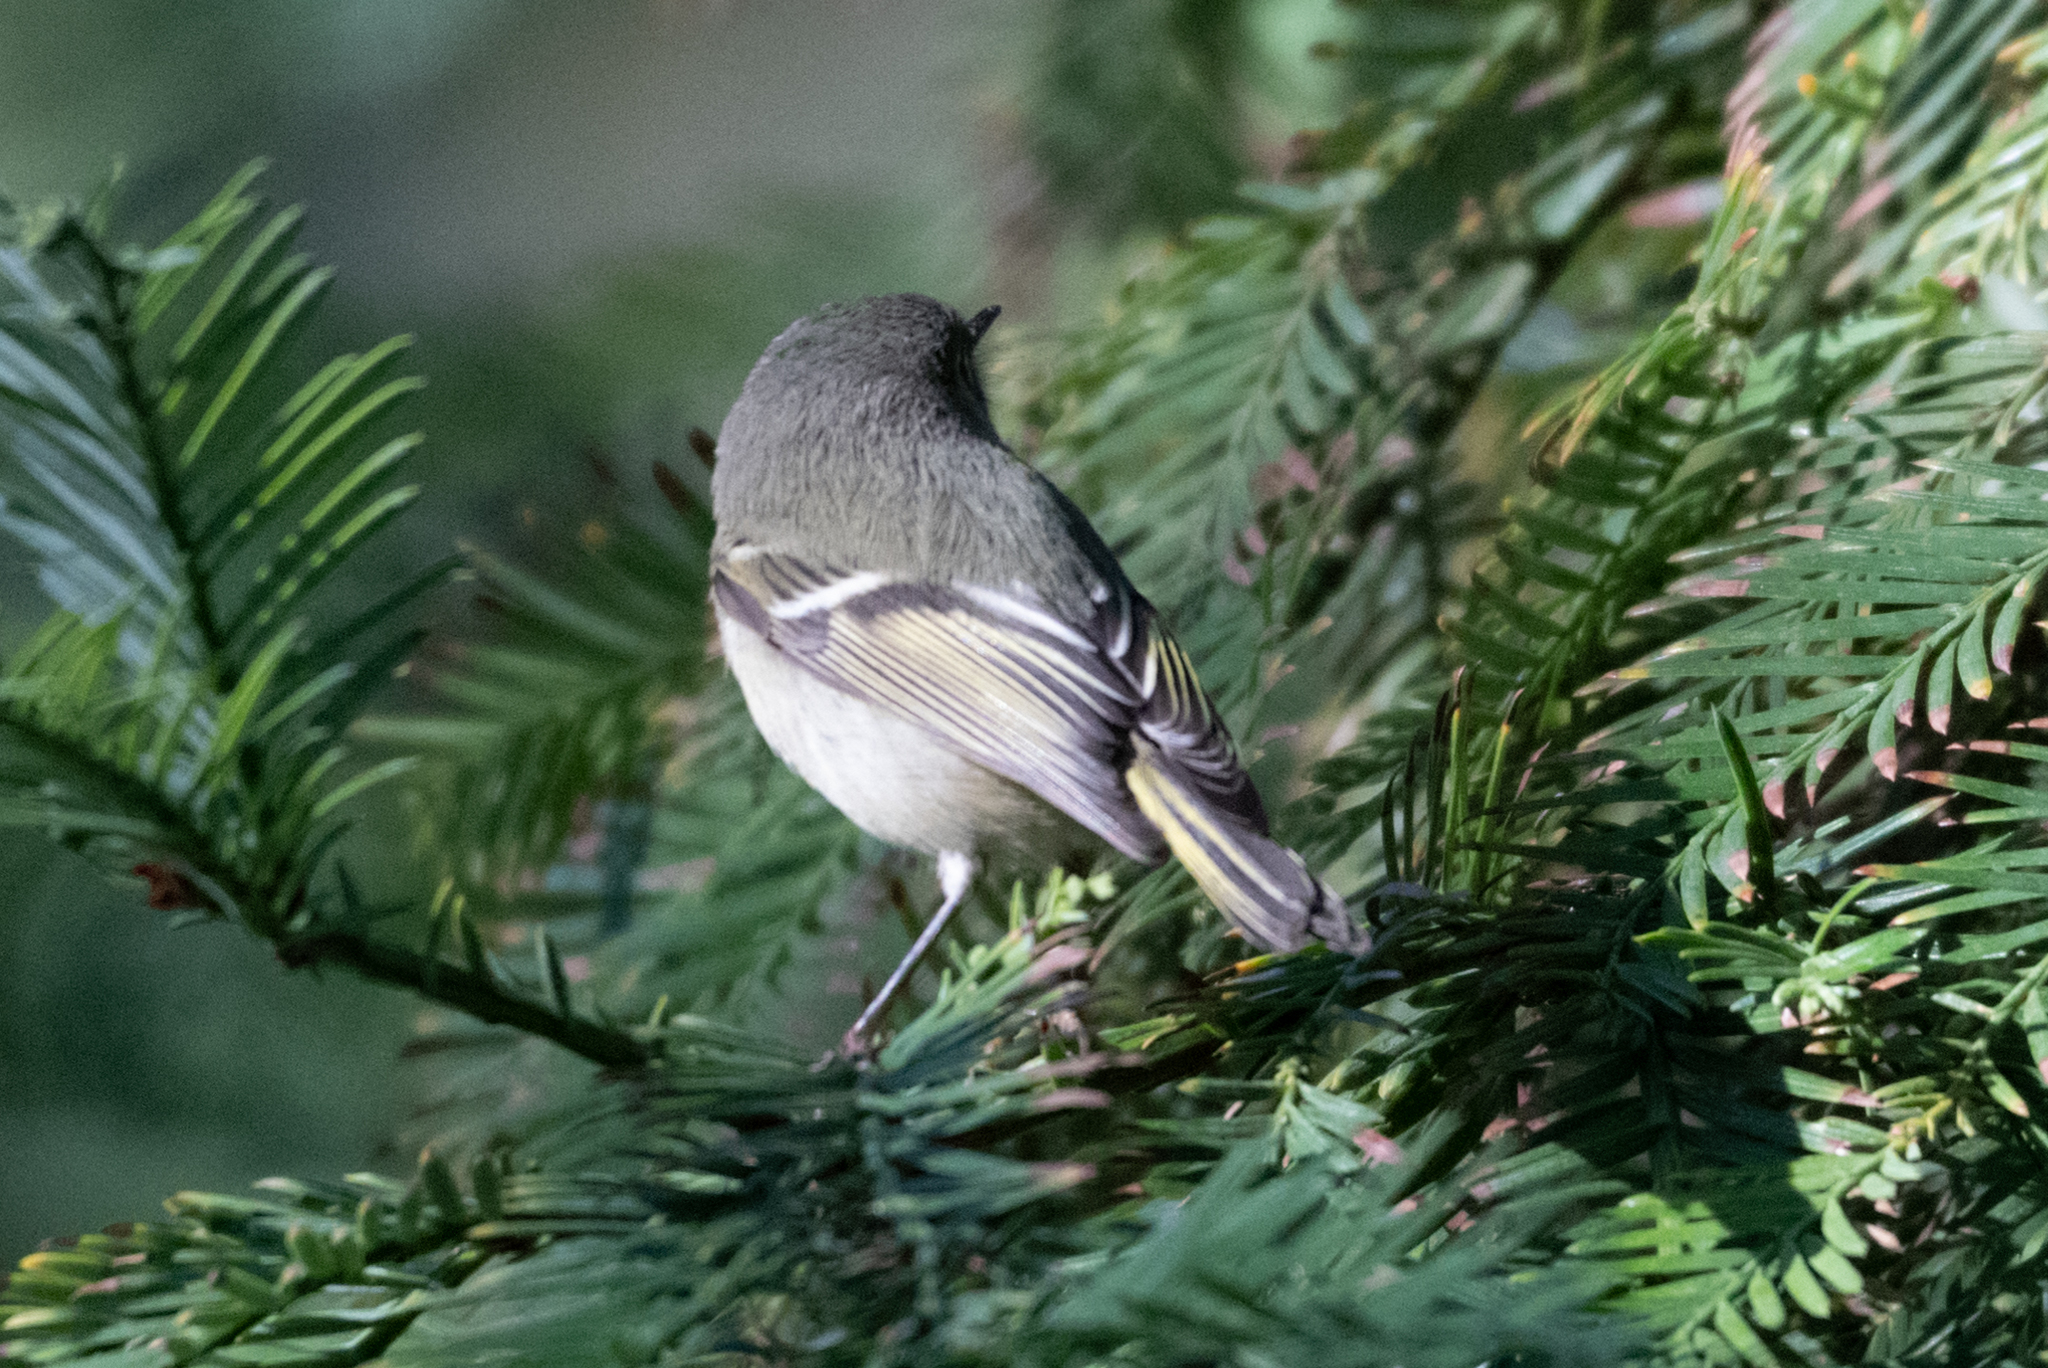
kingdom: Animalia
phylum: Chordata
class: Aves
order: Passeriformes
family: Regulidae
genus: Regulus
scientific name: Regulus calendula
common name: Ruby-crowned kinglet
